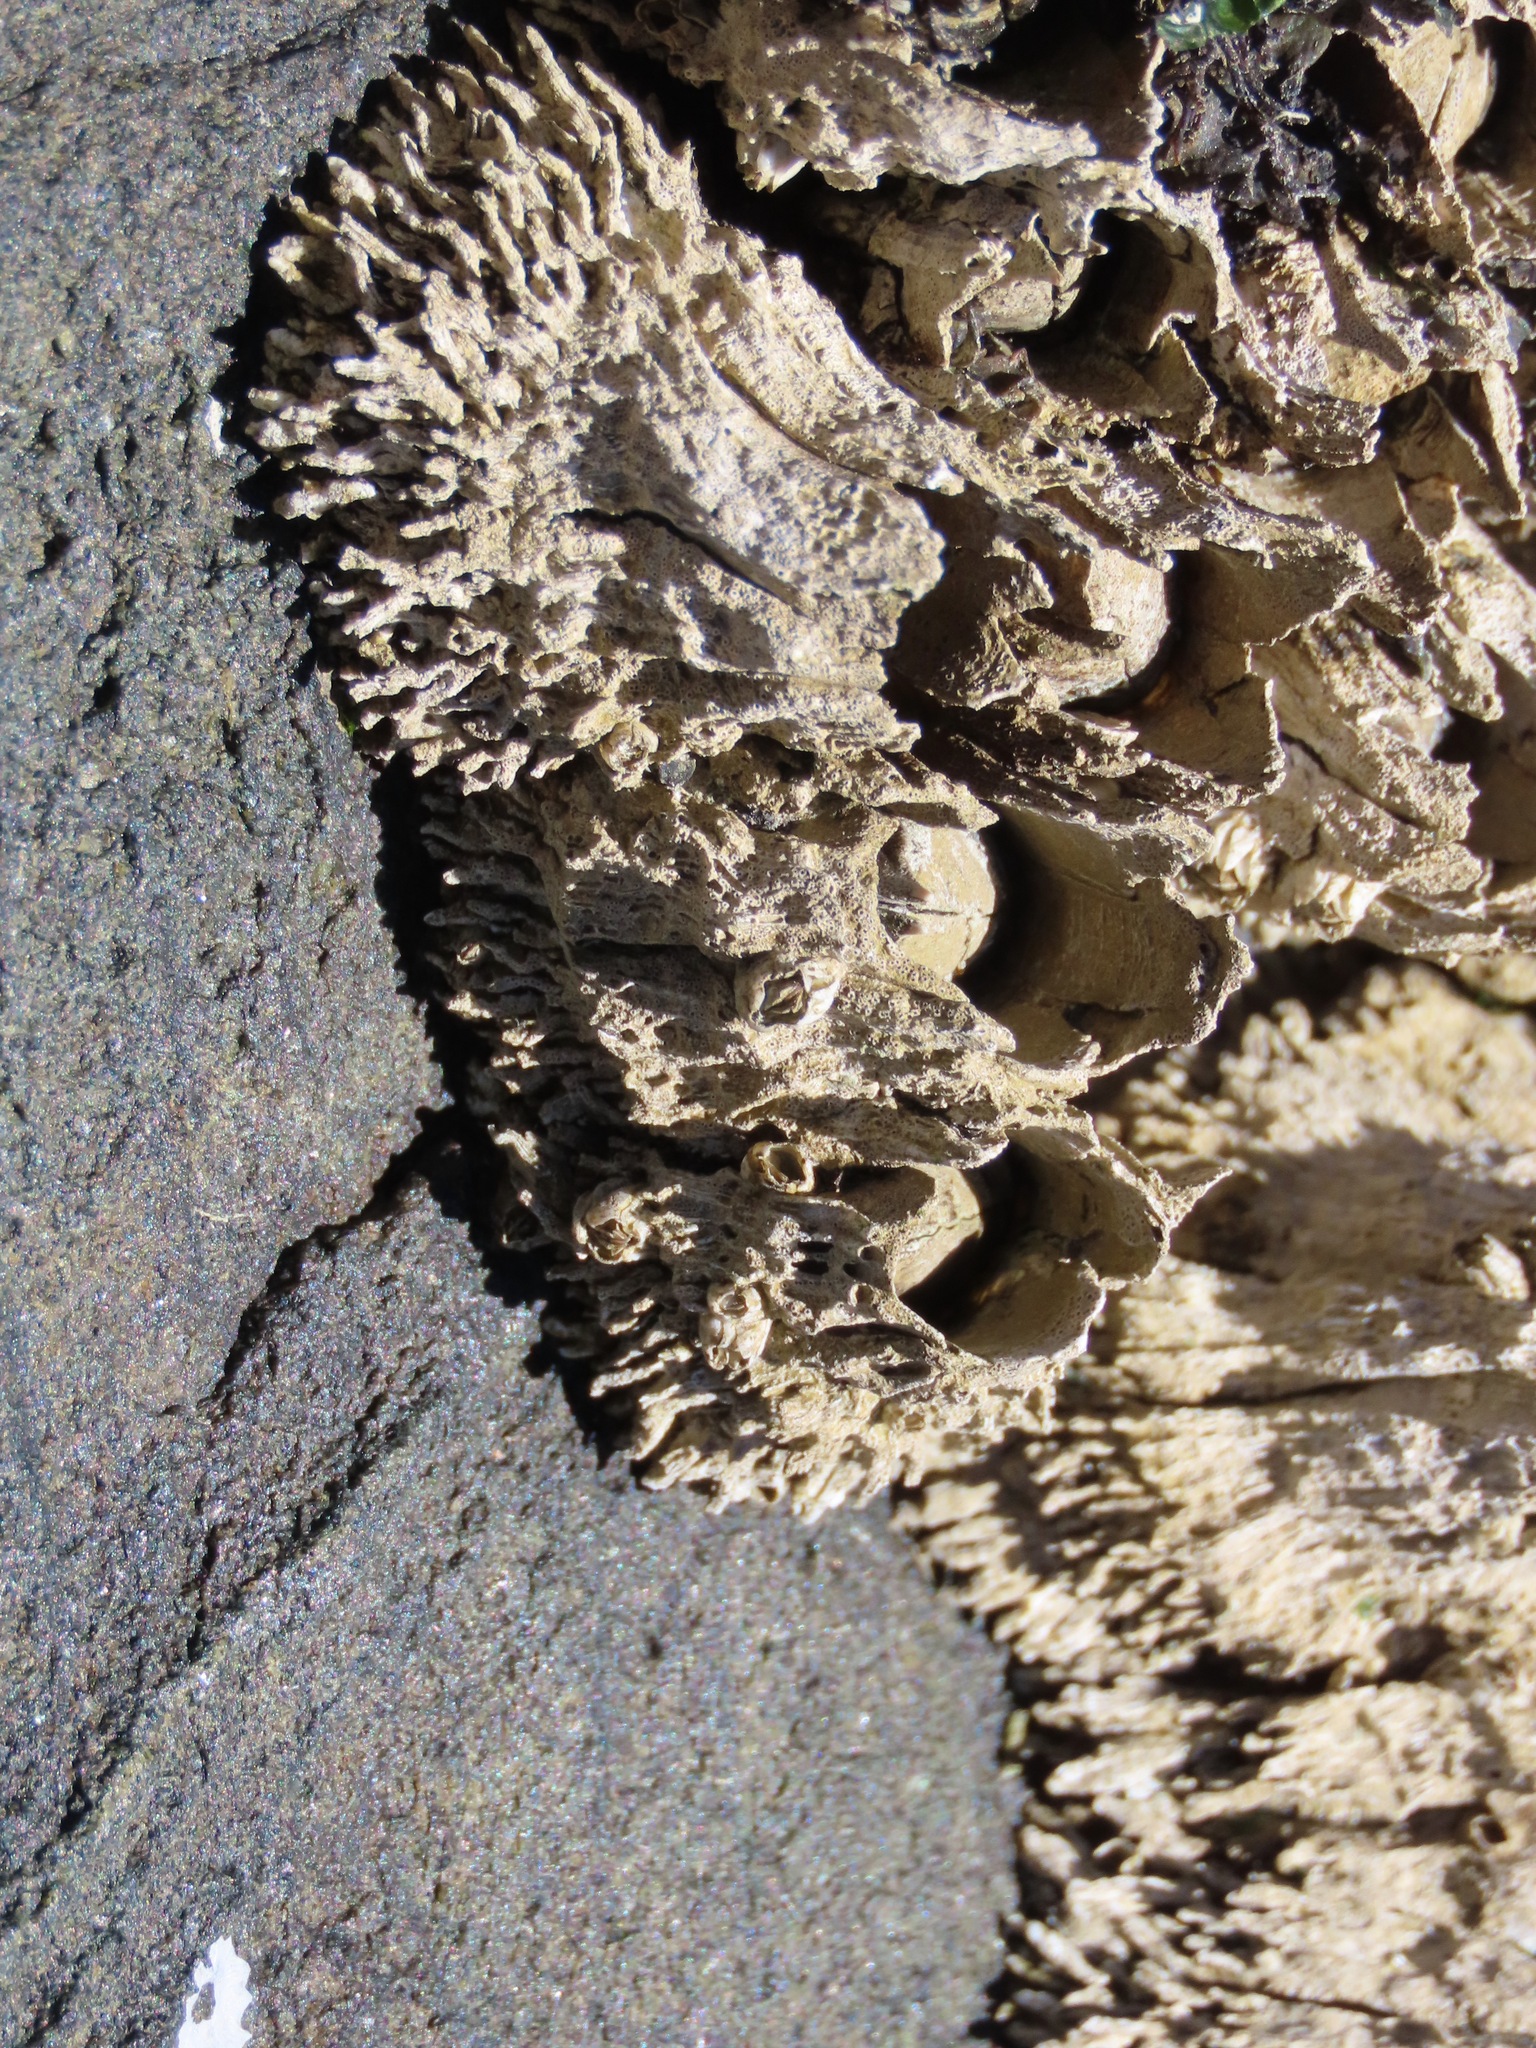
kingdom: Animalia
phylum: Arthropoda
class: Maxillopoda
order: Sessilia
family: Archaeobalanidae
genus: Semibalanus
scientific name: Semibalanus cariosus
